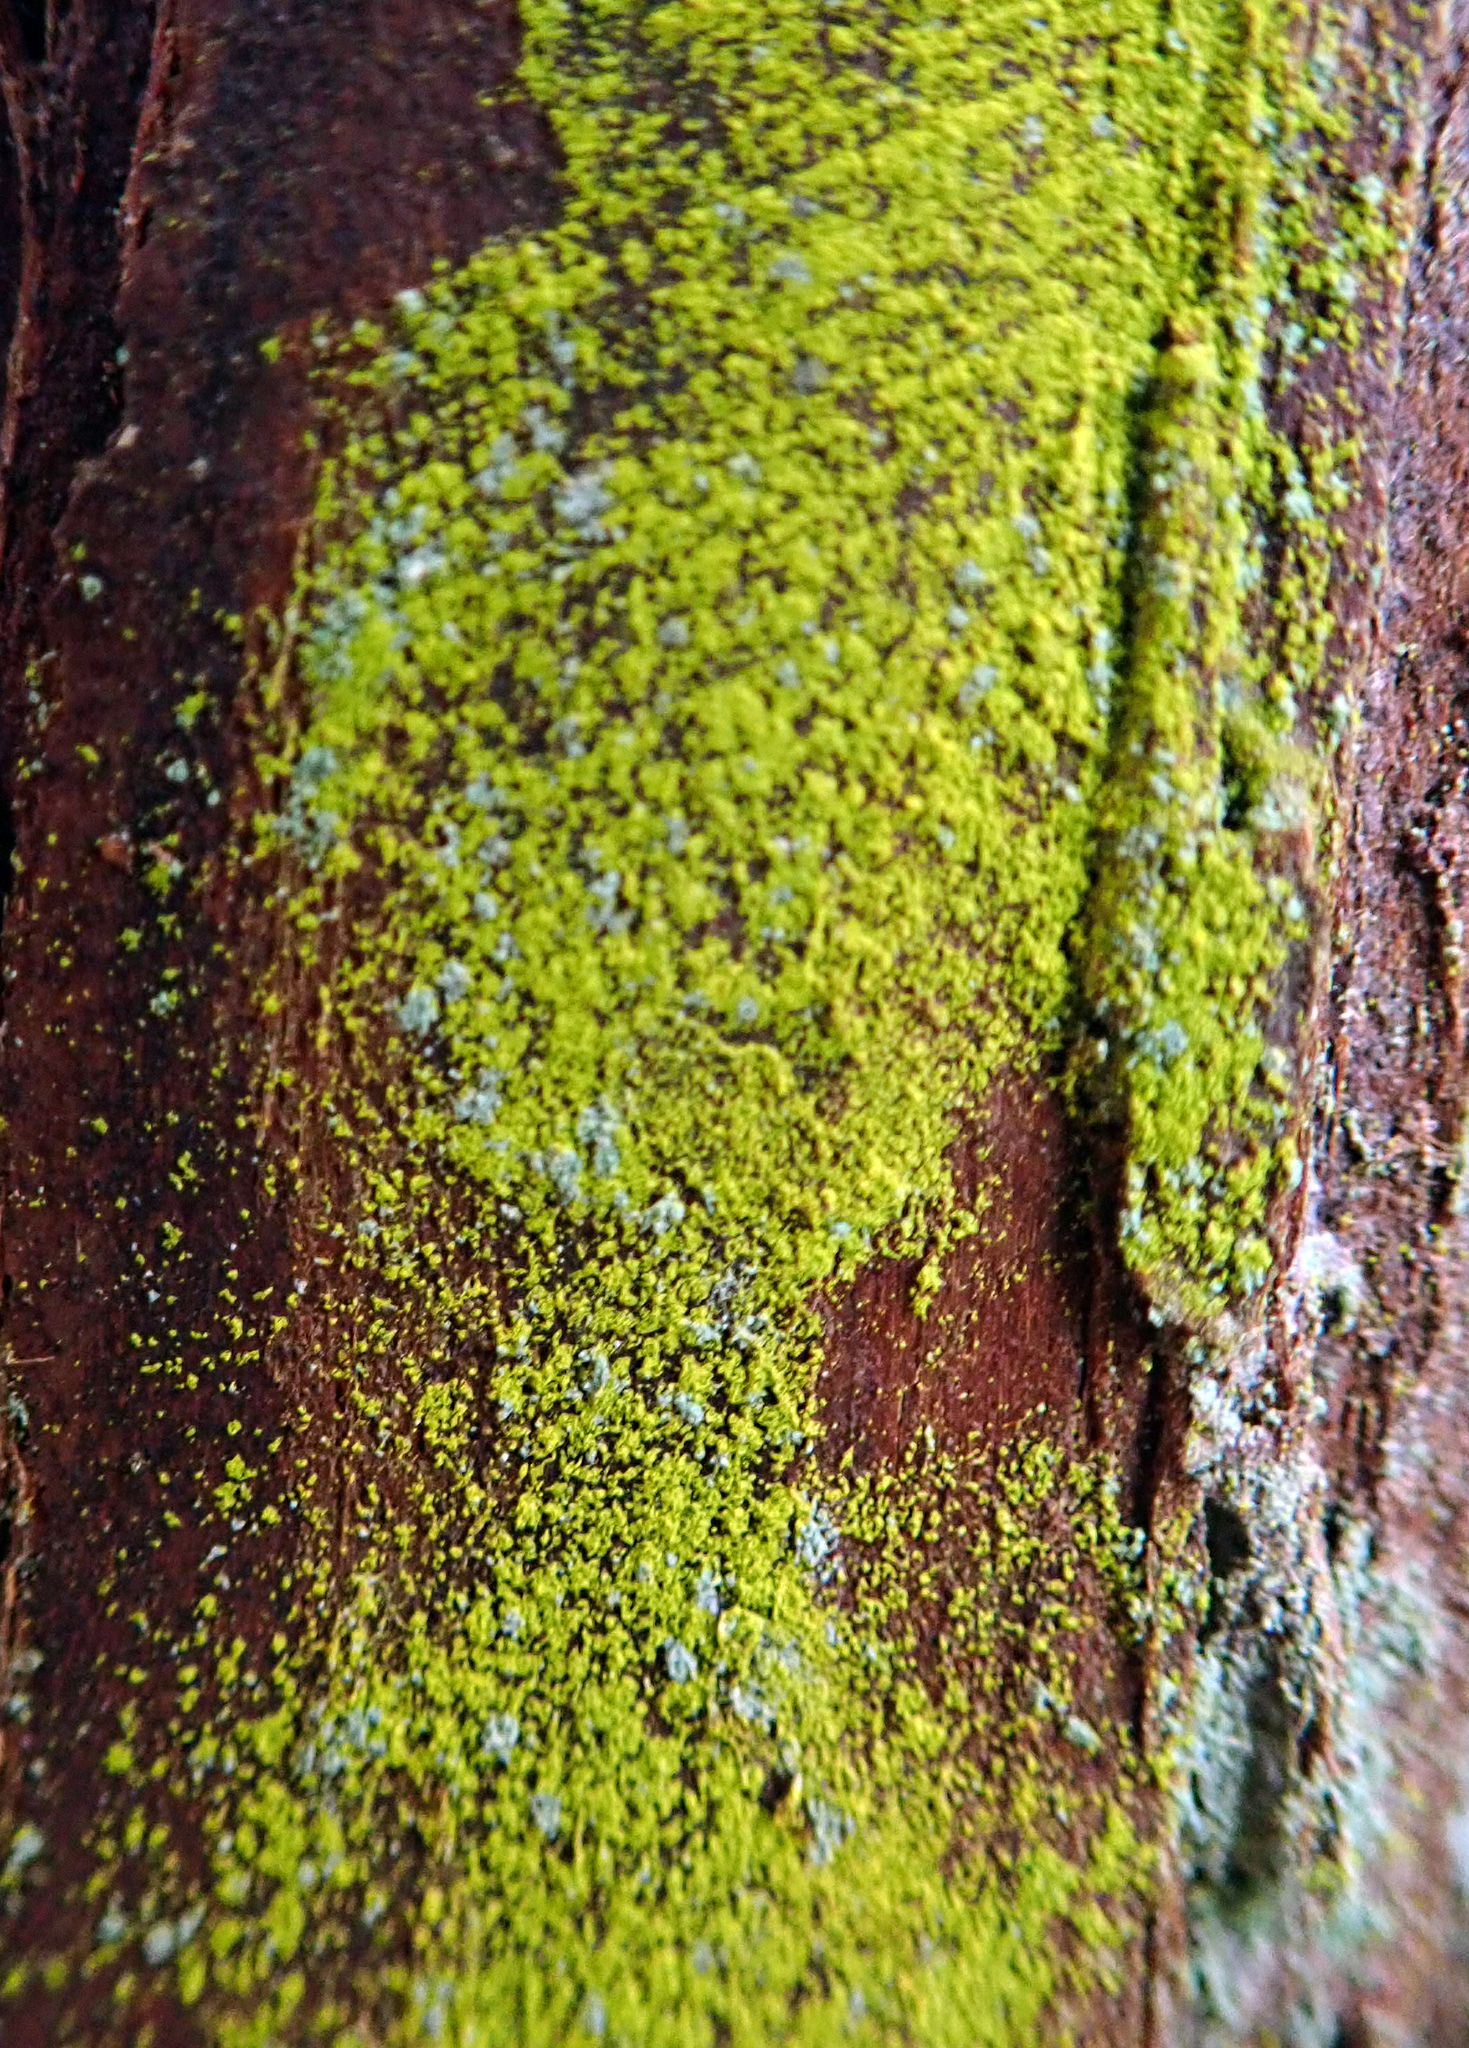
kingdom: Fungi
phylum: Ascomycota
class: Arthoniomycetes
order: Arthoniales
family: Chrysotrichaceae
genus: Chrysothrix
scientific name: Chrysothrix xanthina
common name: Common gold-dust
